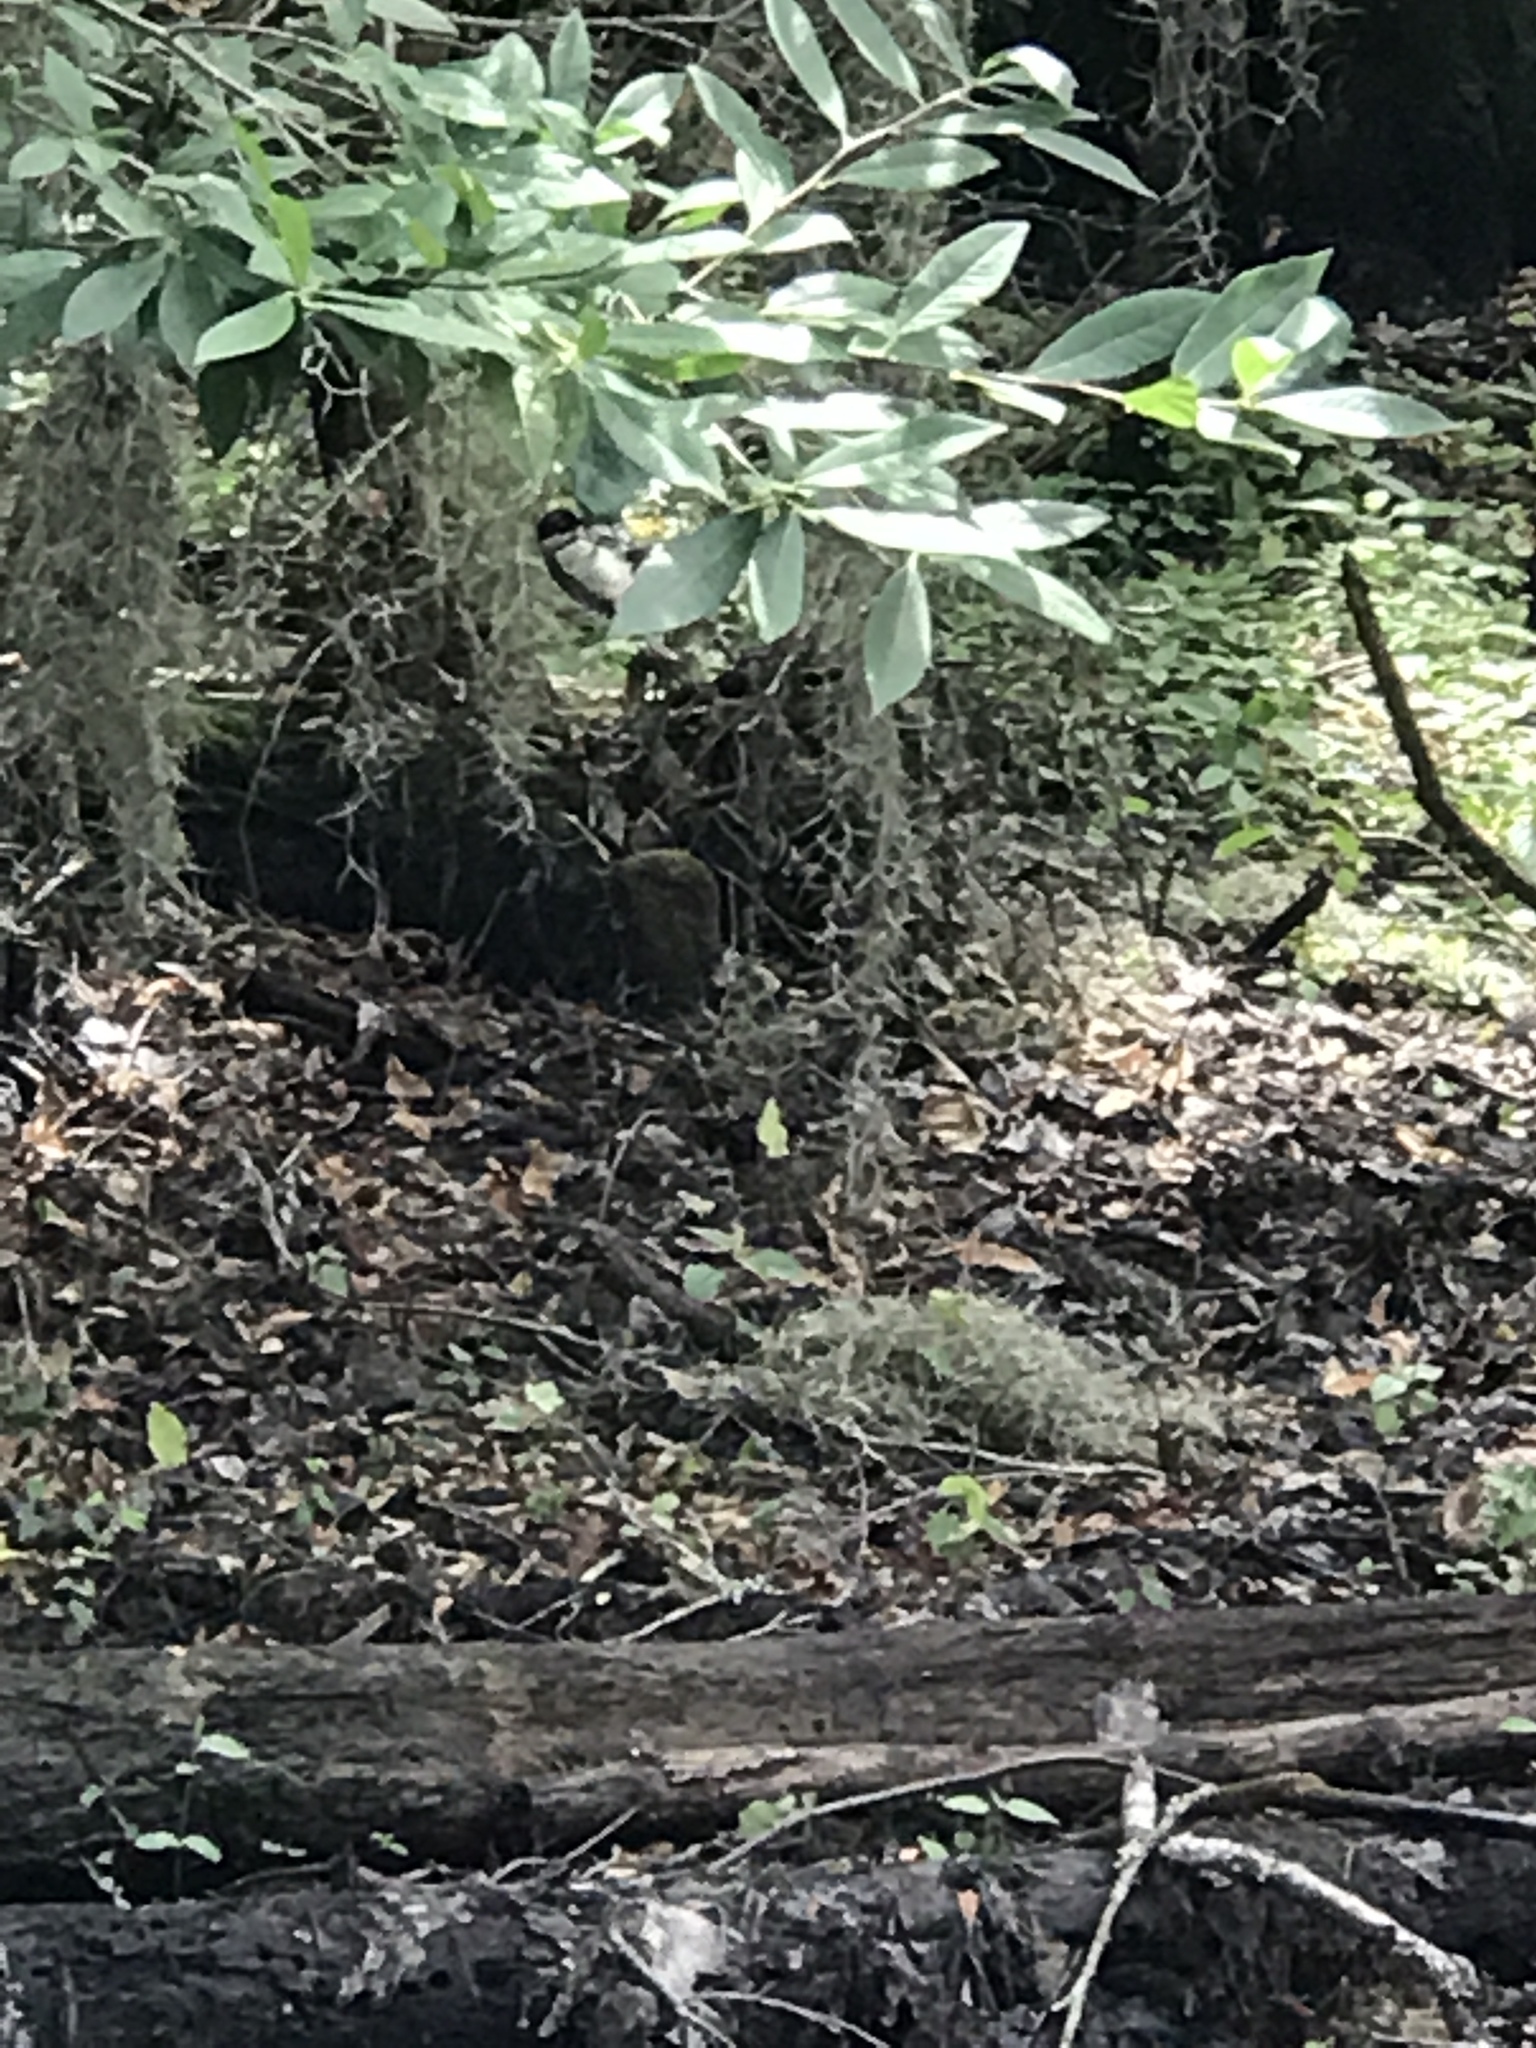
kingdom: Animalia
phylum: Chordata
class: Aves
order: Passeriformes
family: Paridae
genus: Poecile
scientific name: Poecile carolinensis
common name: Carolina chickadee
